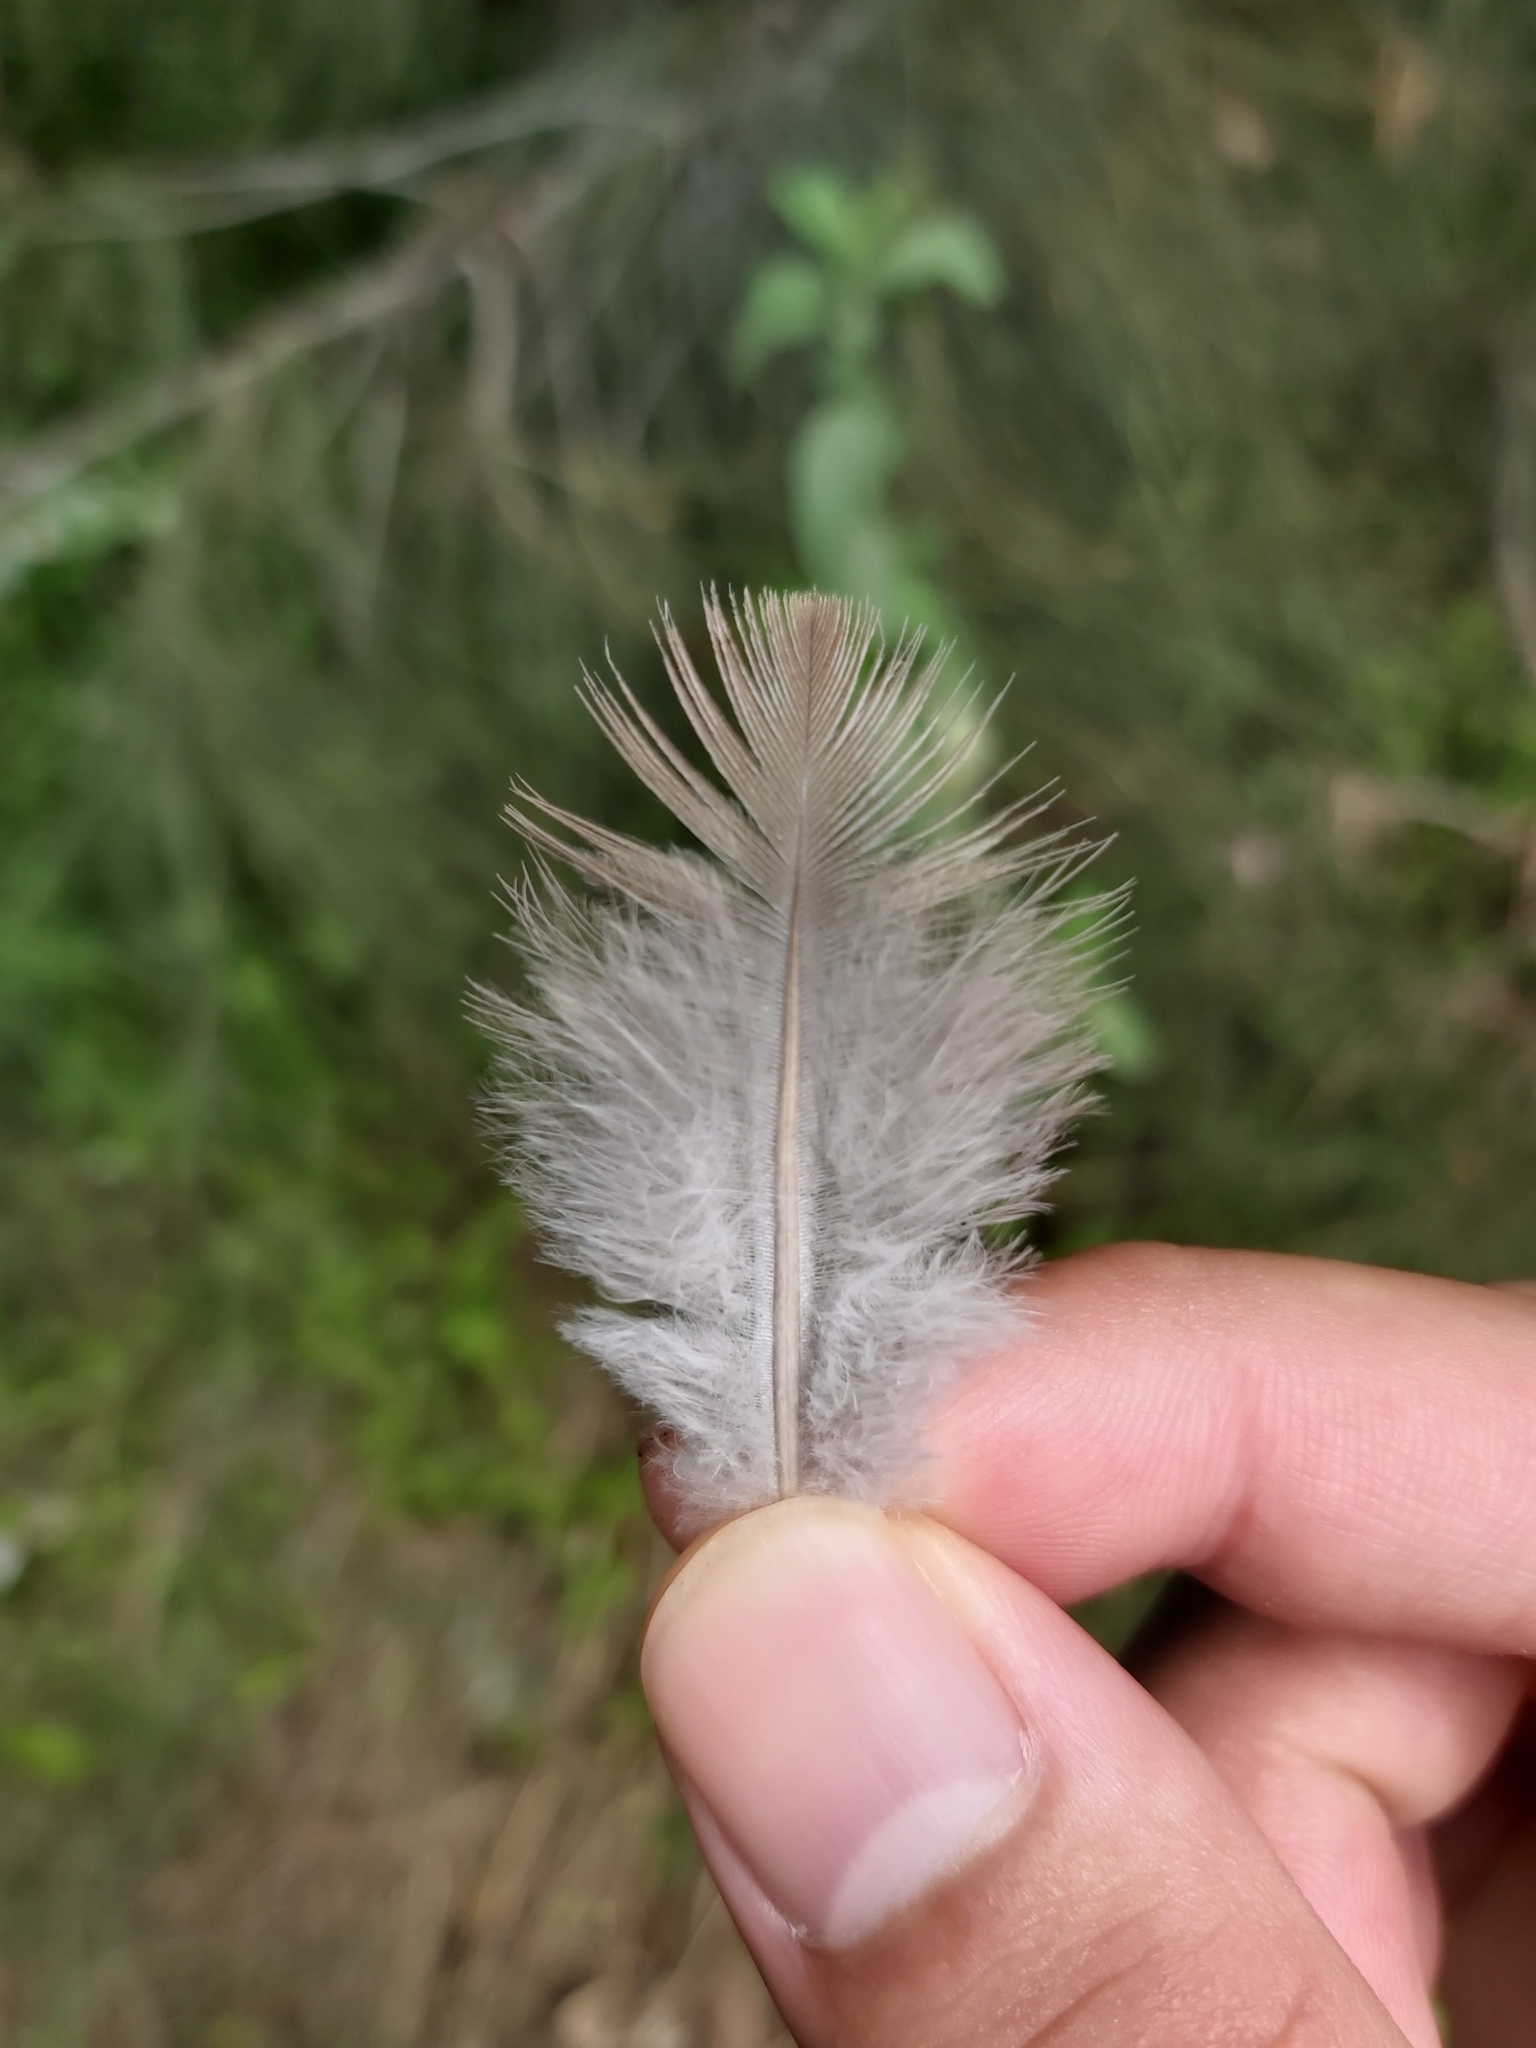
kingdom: Animalia
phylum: Chordata
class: Aves
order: Columbiformes
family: Columbidae
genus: Spilopelia
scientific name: Spilopelia chinensis
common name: Spotted dove
